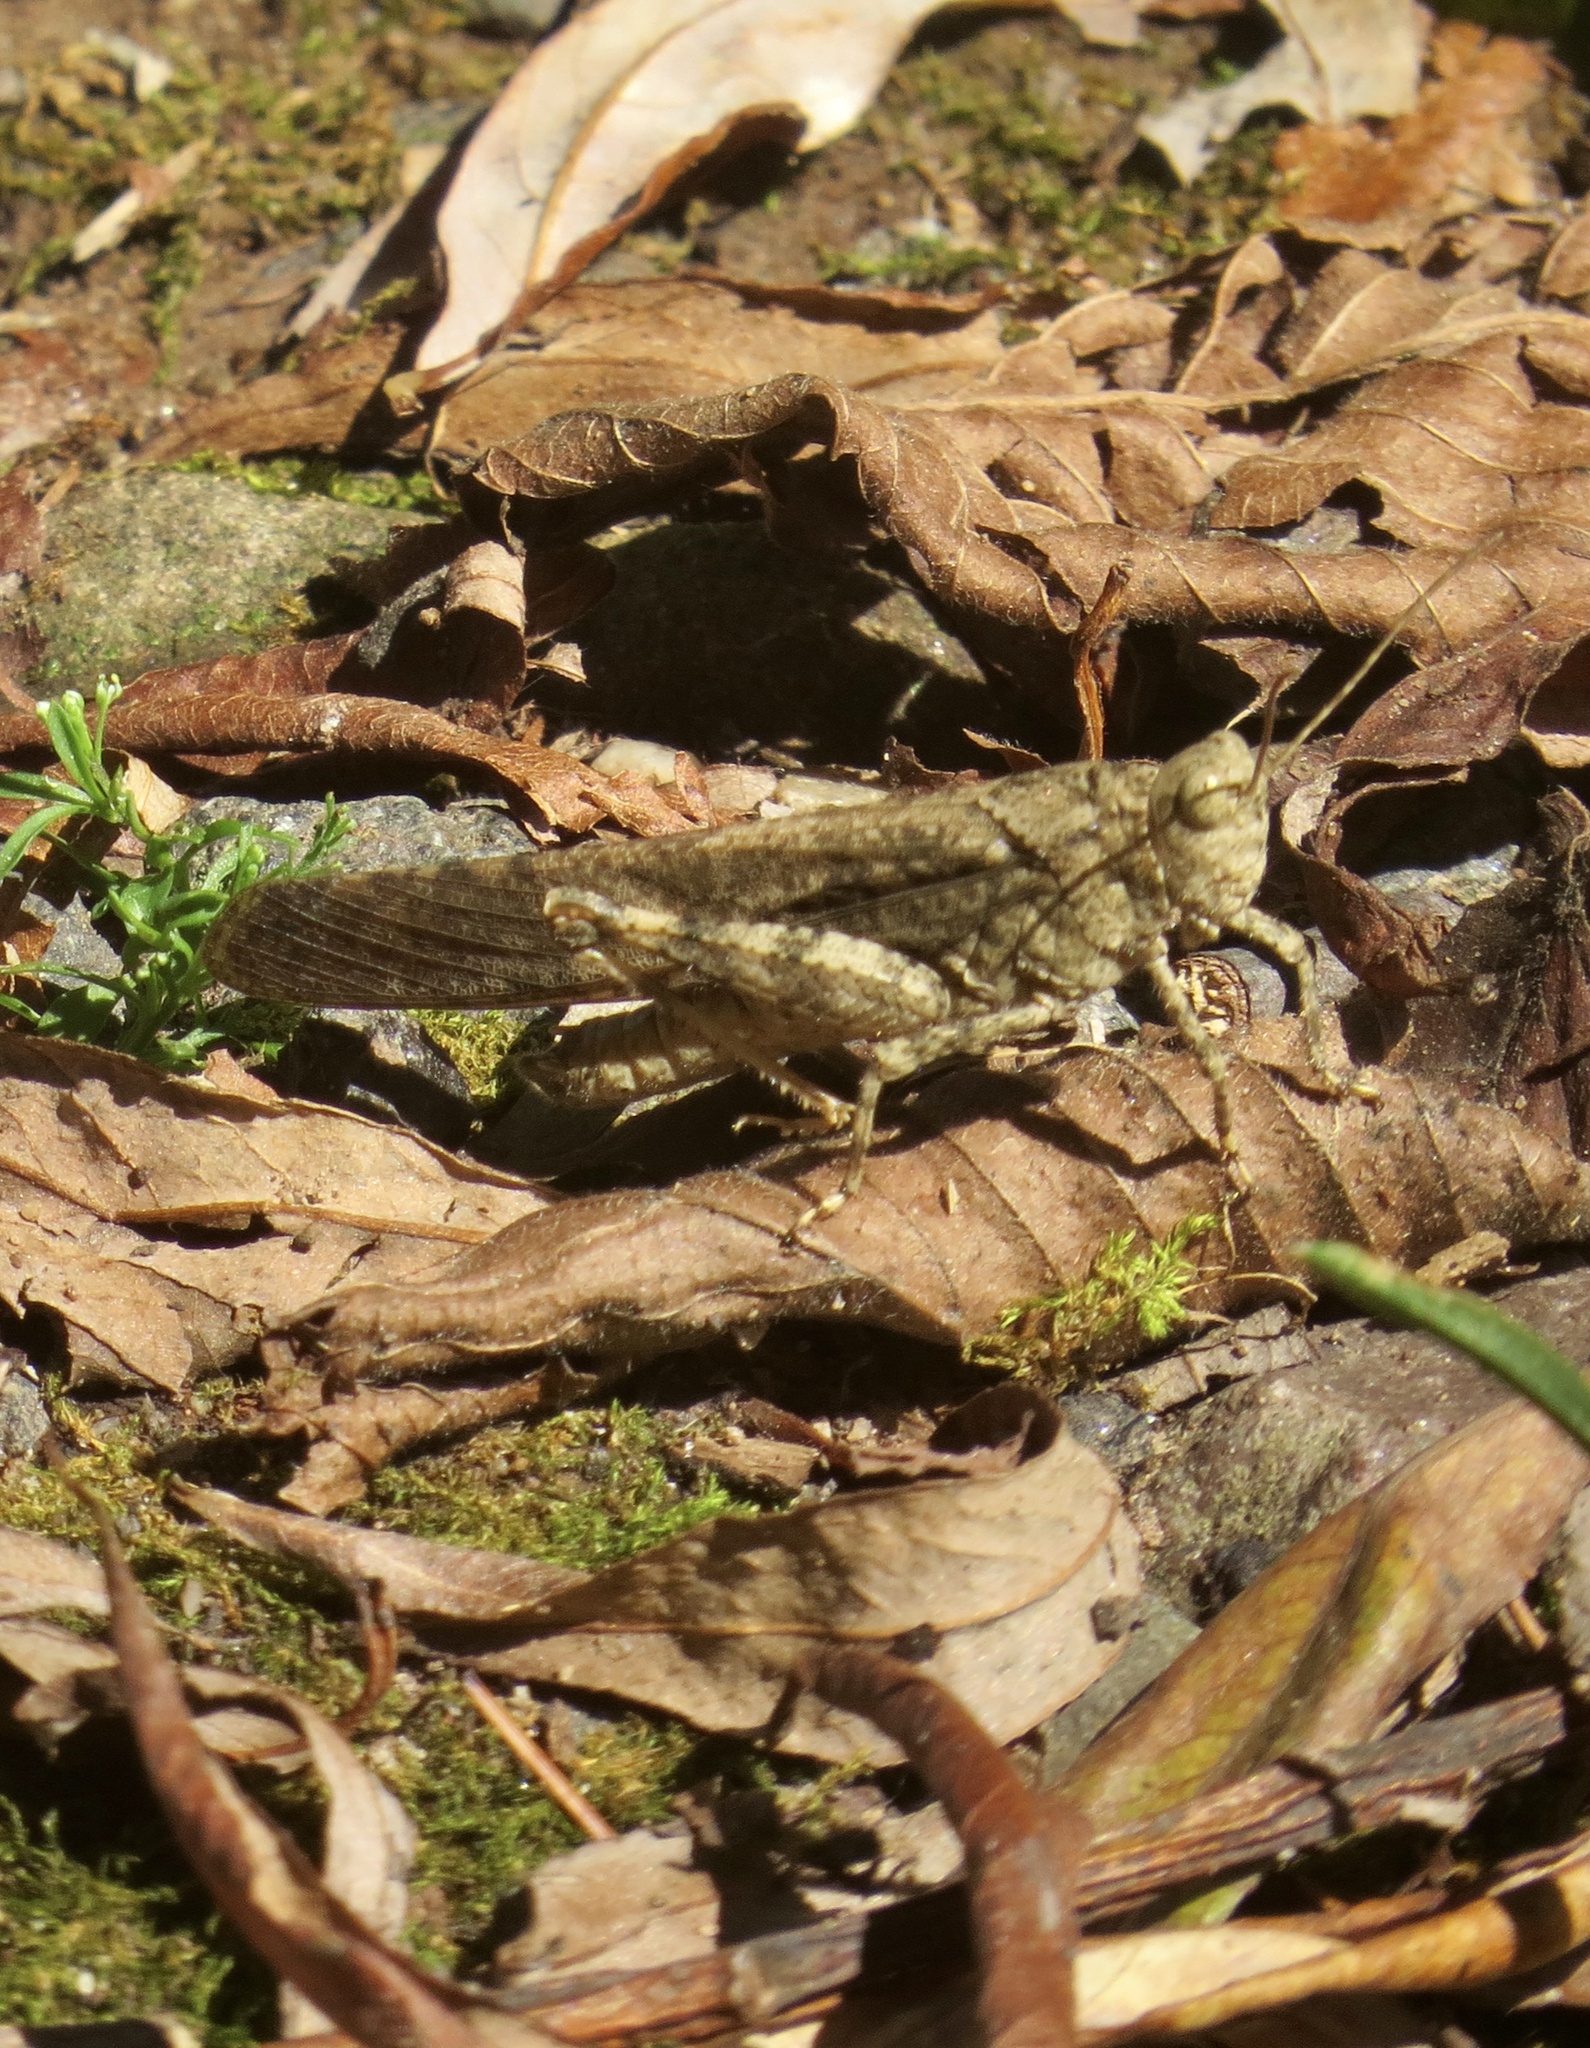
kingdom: Animalia
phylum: Arthropoda
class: Insecta
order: Orthoptera
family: Acrididae
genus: Dissosteira
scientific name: Dissosteira carolina
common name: Carolina grasshopper
